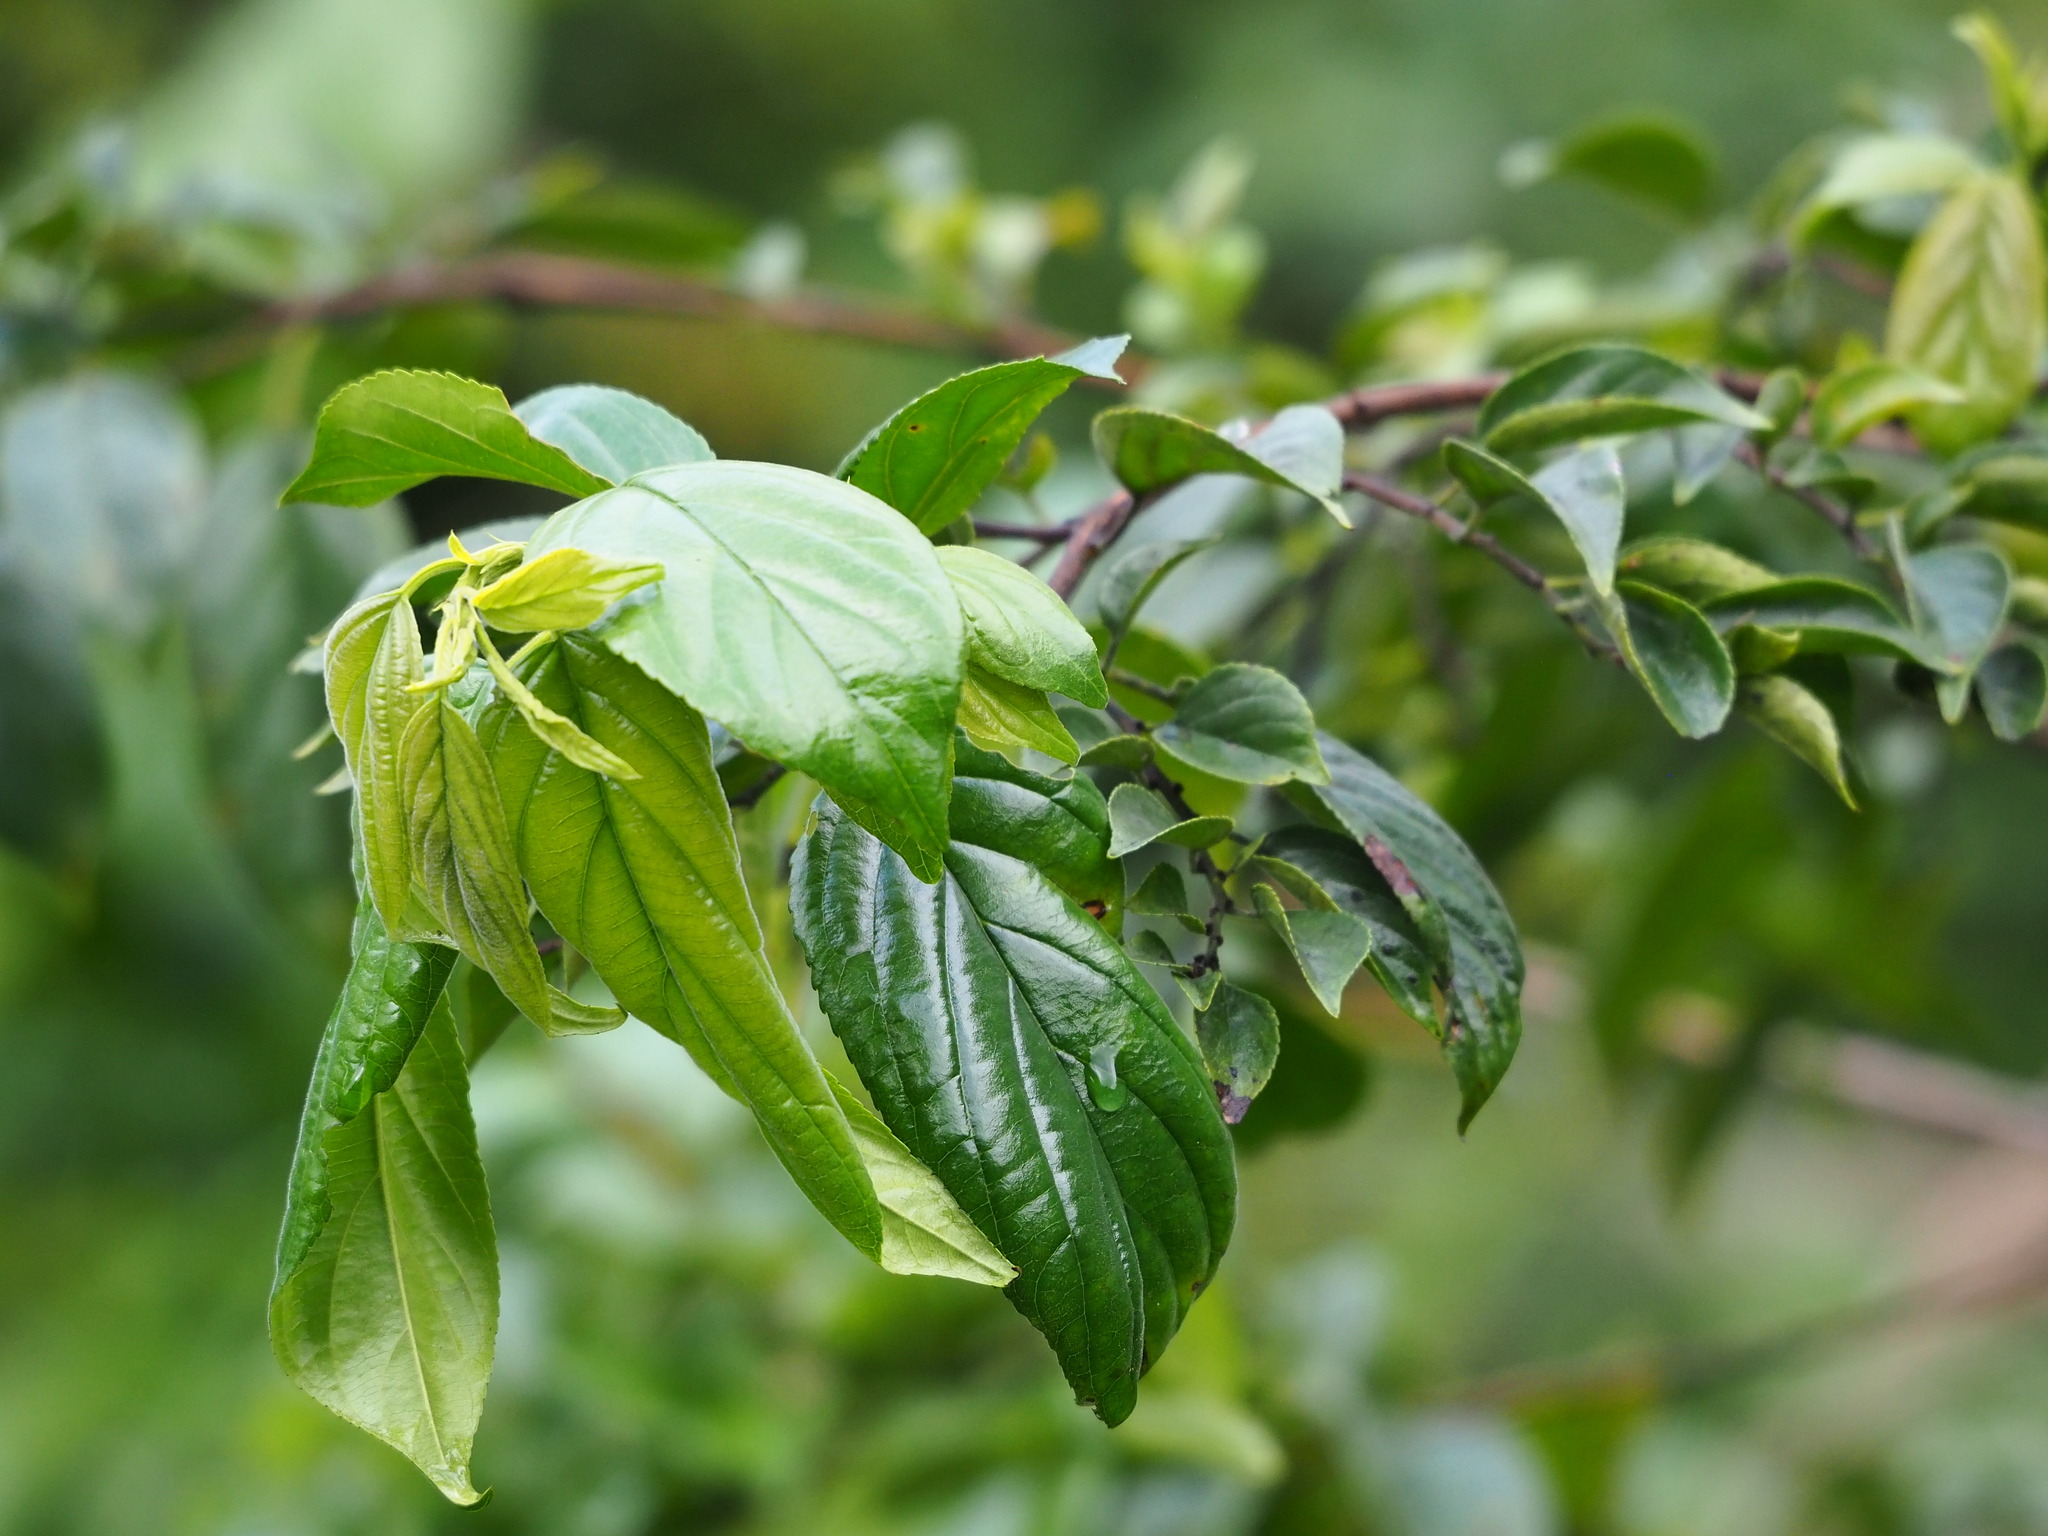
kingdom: Plantae
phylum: Tracheophyta
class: Magnoliopsida
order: Rosales
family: Rhamnaceae
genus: Rhamnus
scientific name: Rhamnus formosana
